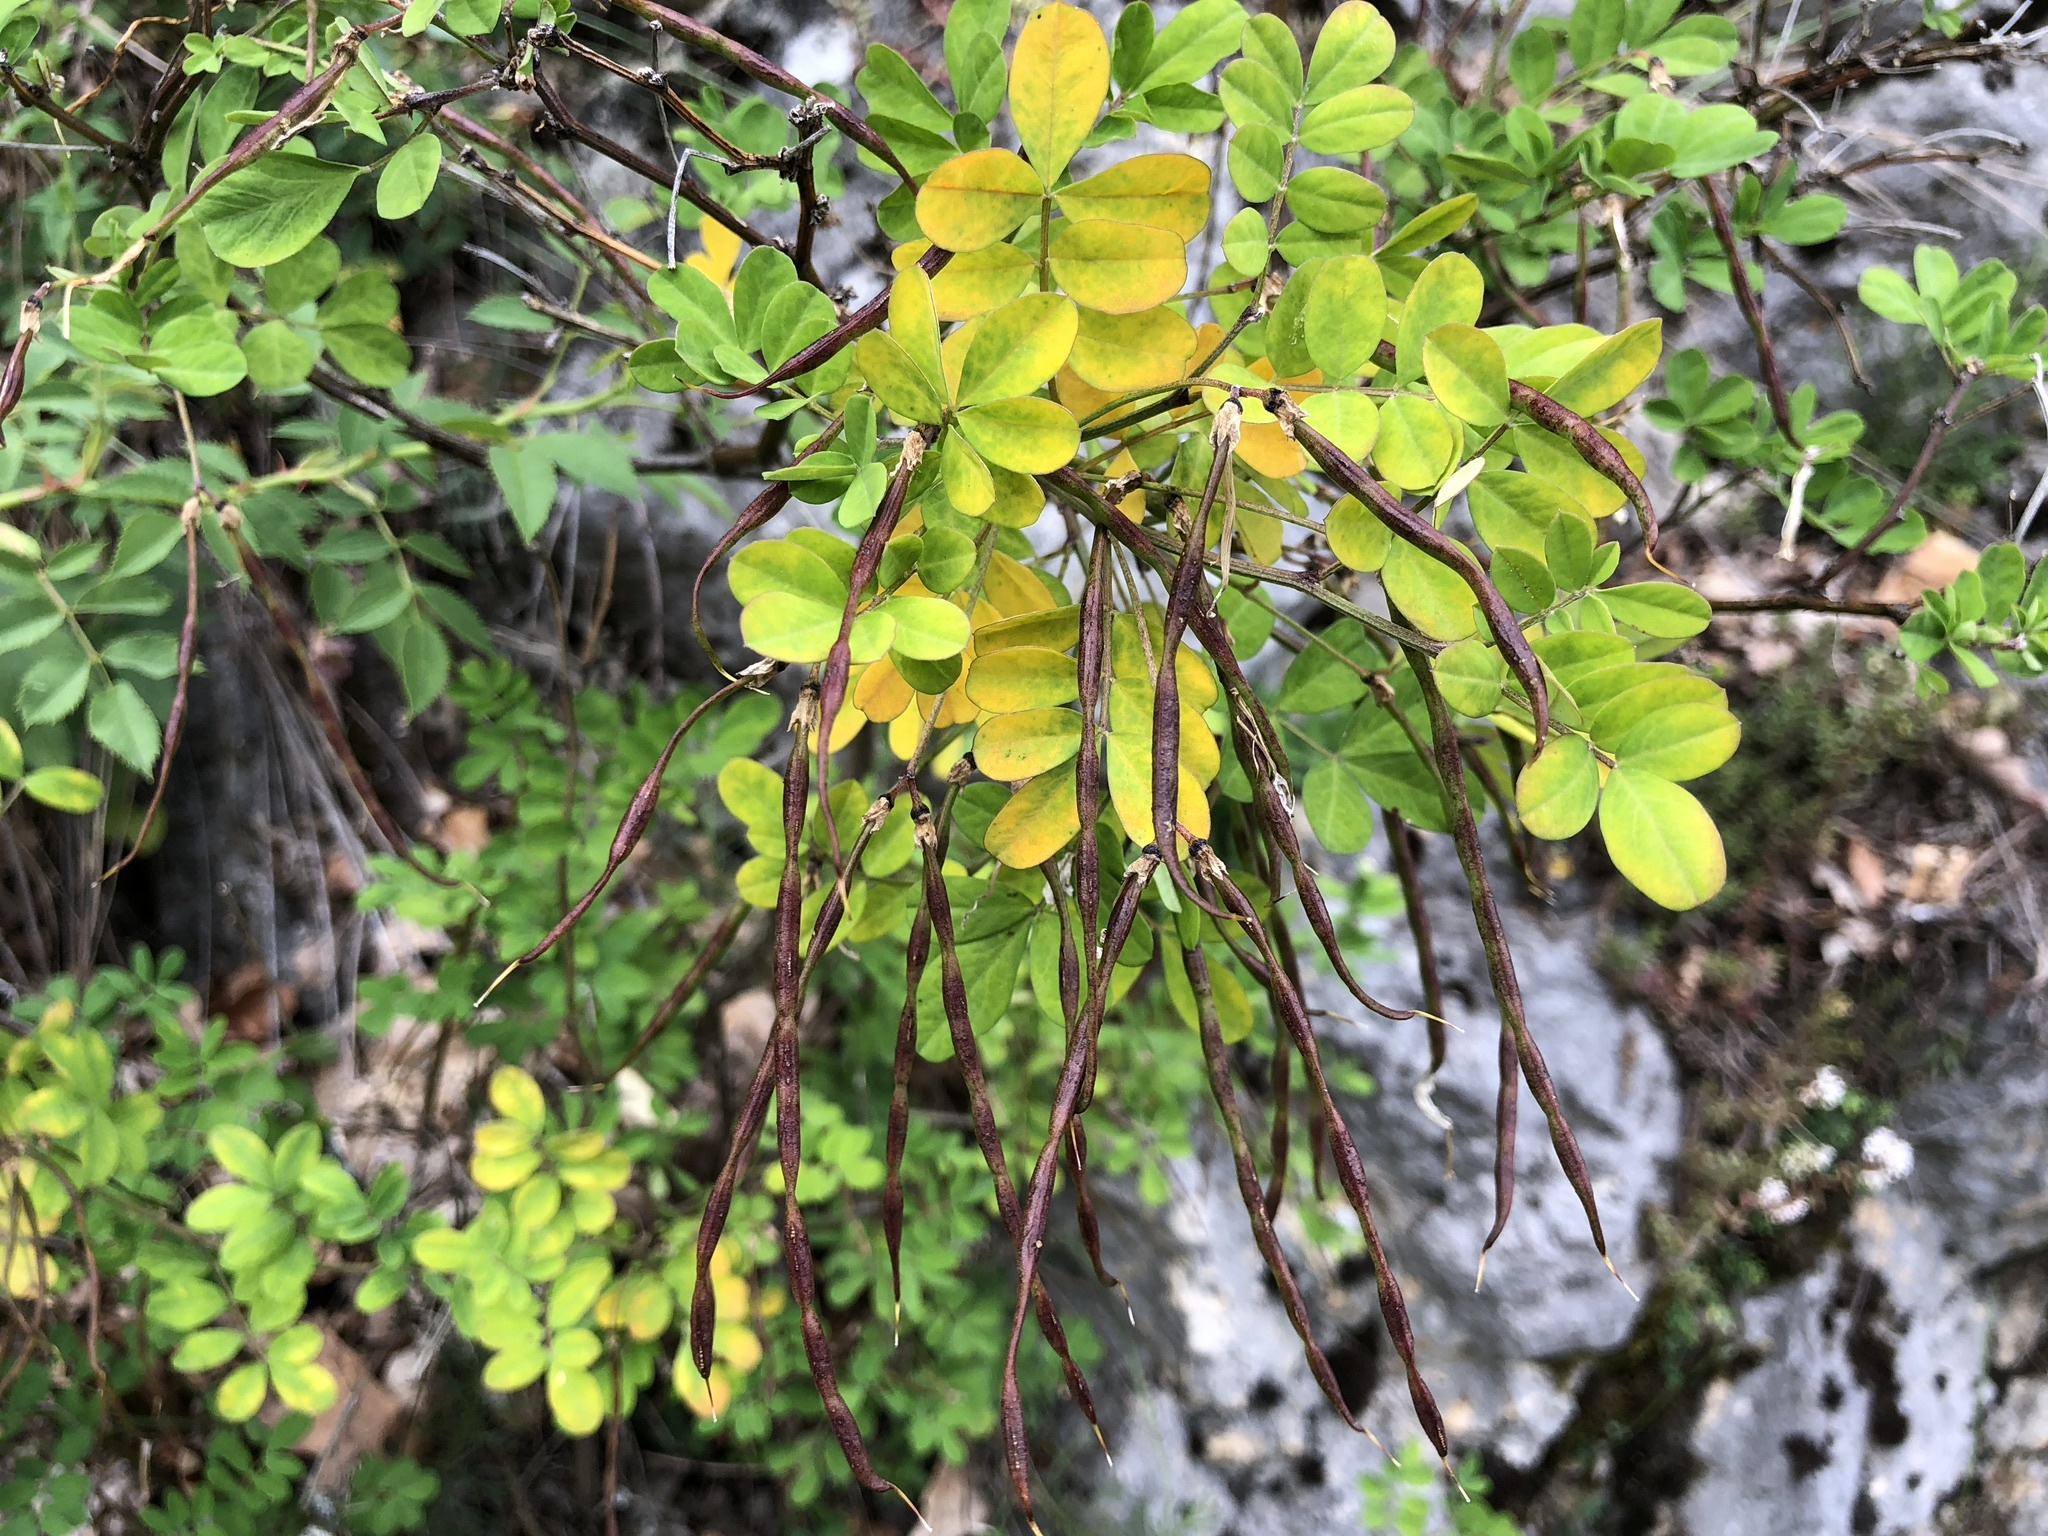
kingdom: Plantae
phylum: Tracheophyta
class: Magnoliopsida
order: Fabales
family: Fabaceae
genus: Hippocrepis
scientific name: Hippocrepis emerus
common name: Scorpion senna
